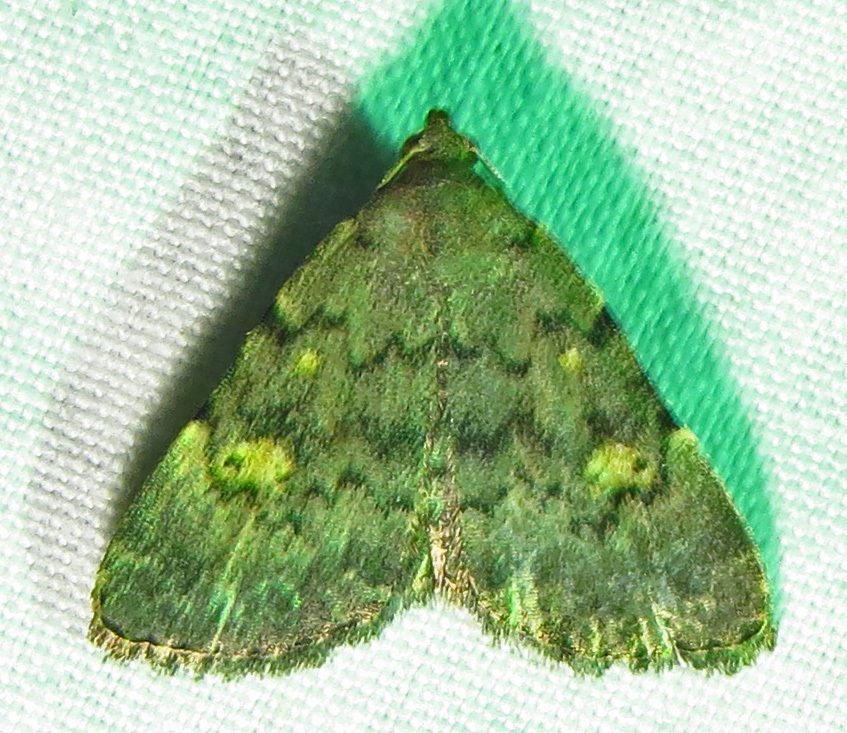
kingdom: Animalia
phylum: Arthropoda
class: Insecta
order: Lepidoptera
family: Erebidae
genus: Idia
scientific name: Idia aemula
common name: Common idia moth
